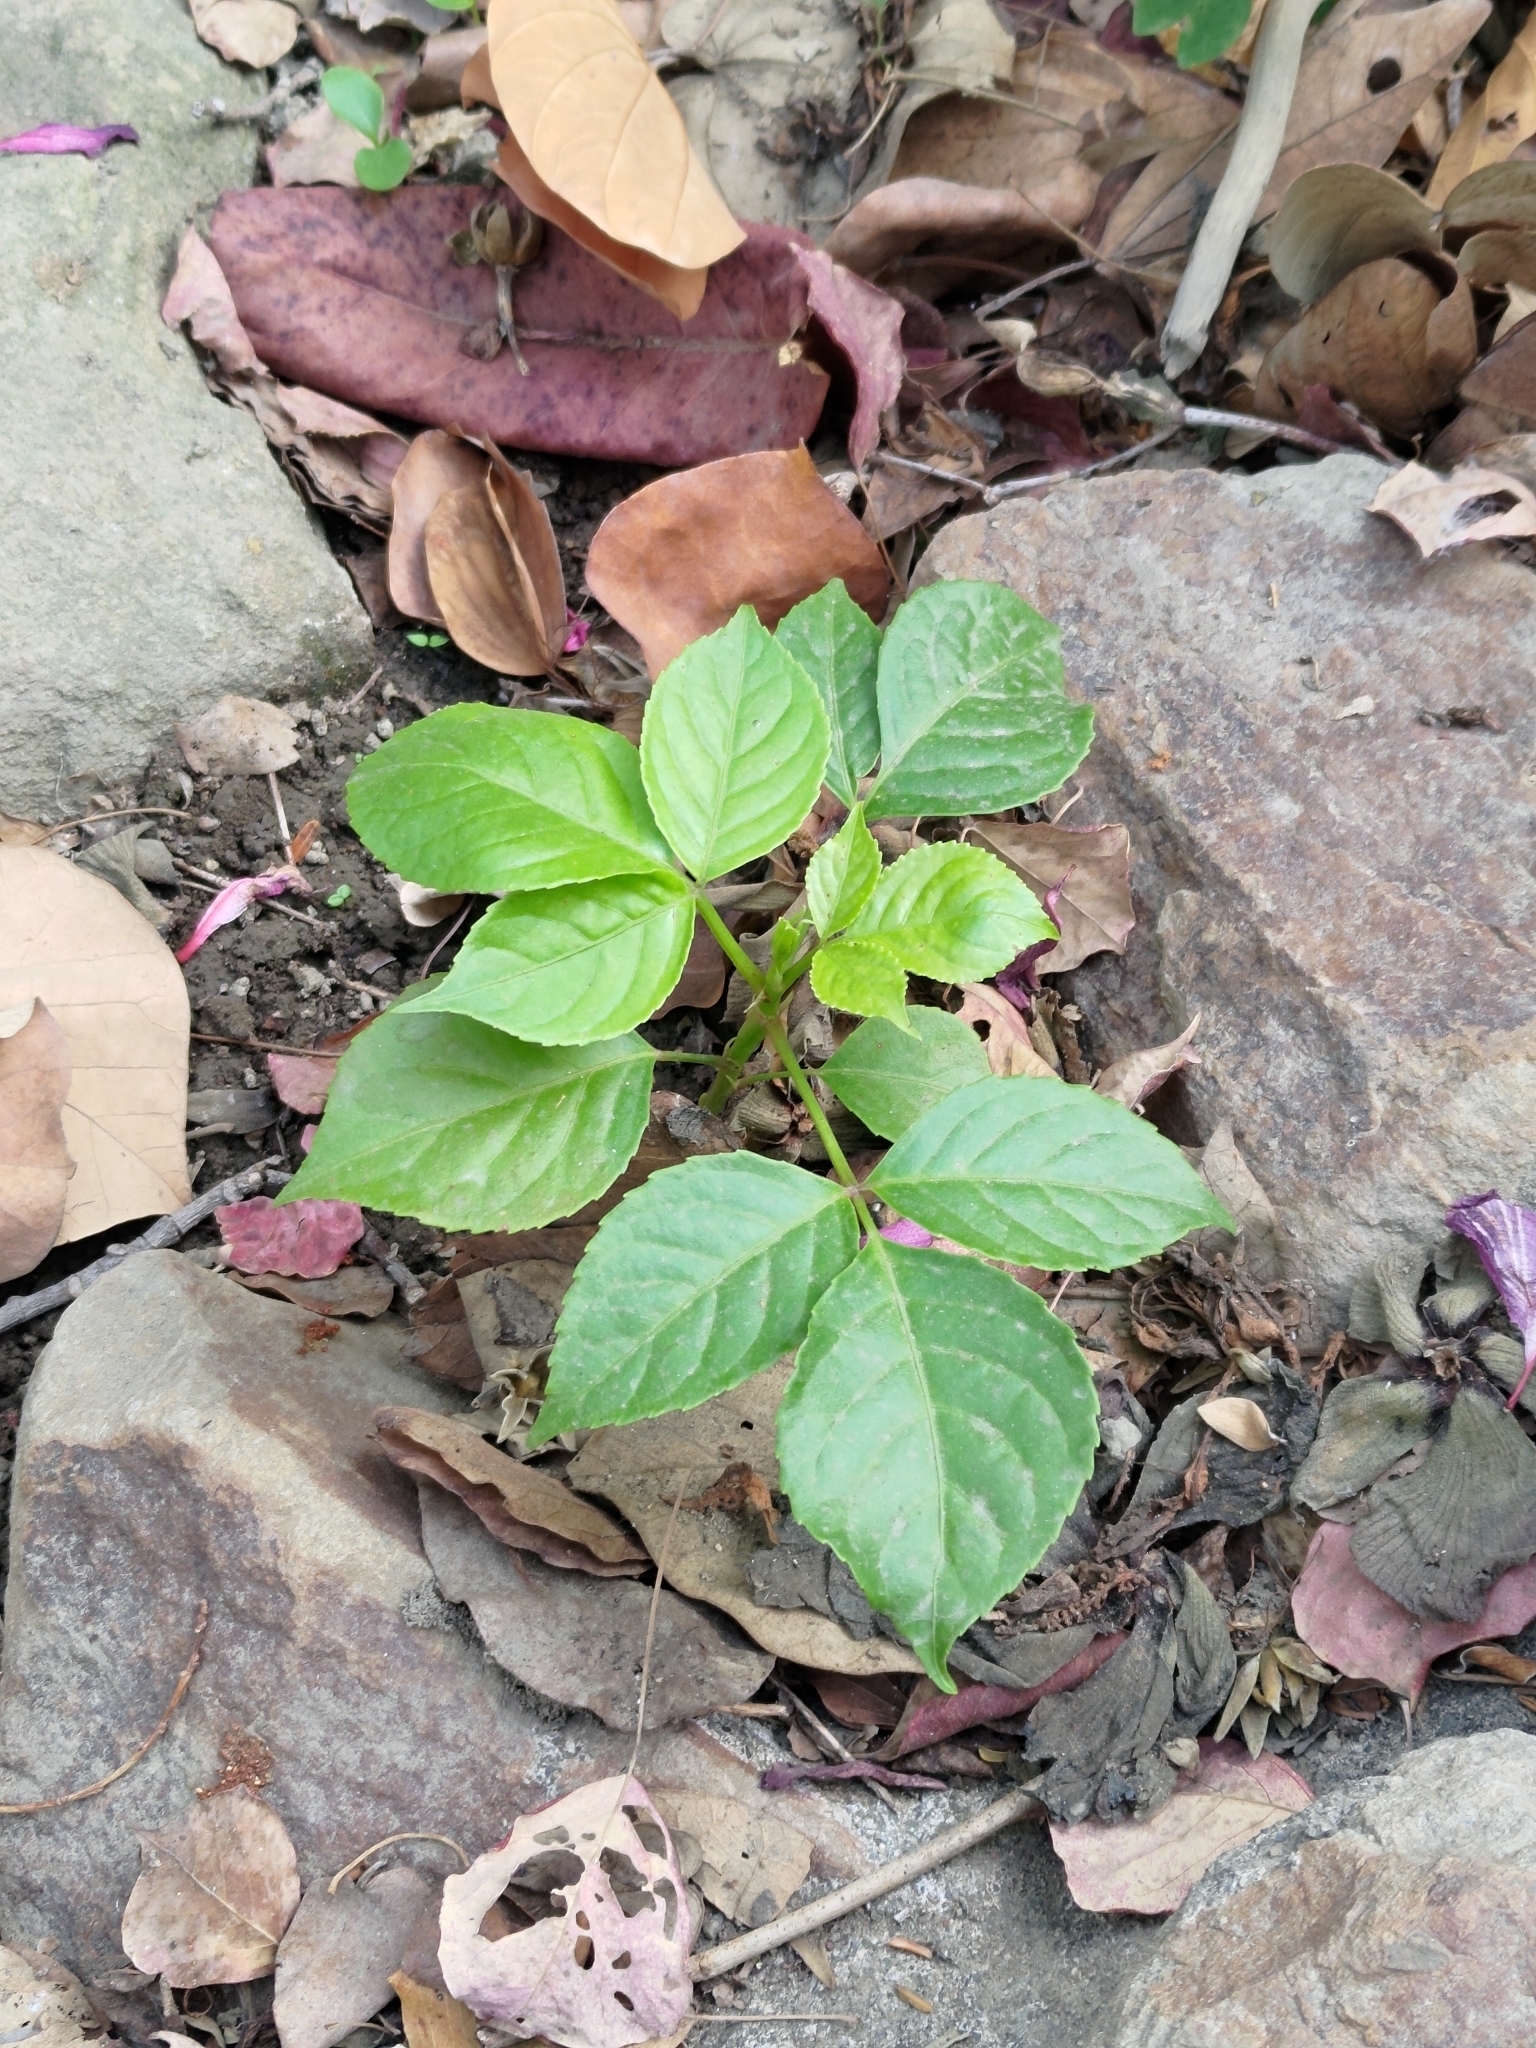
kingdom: Plantae
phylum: Tracheophyta
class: Magnoliopsida
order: Malpighiales
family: Phyllanthaceae
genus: Bischofia
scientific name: Bischofia javanica
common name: Javanese bishopwood
